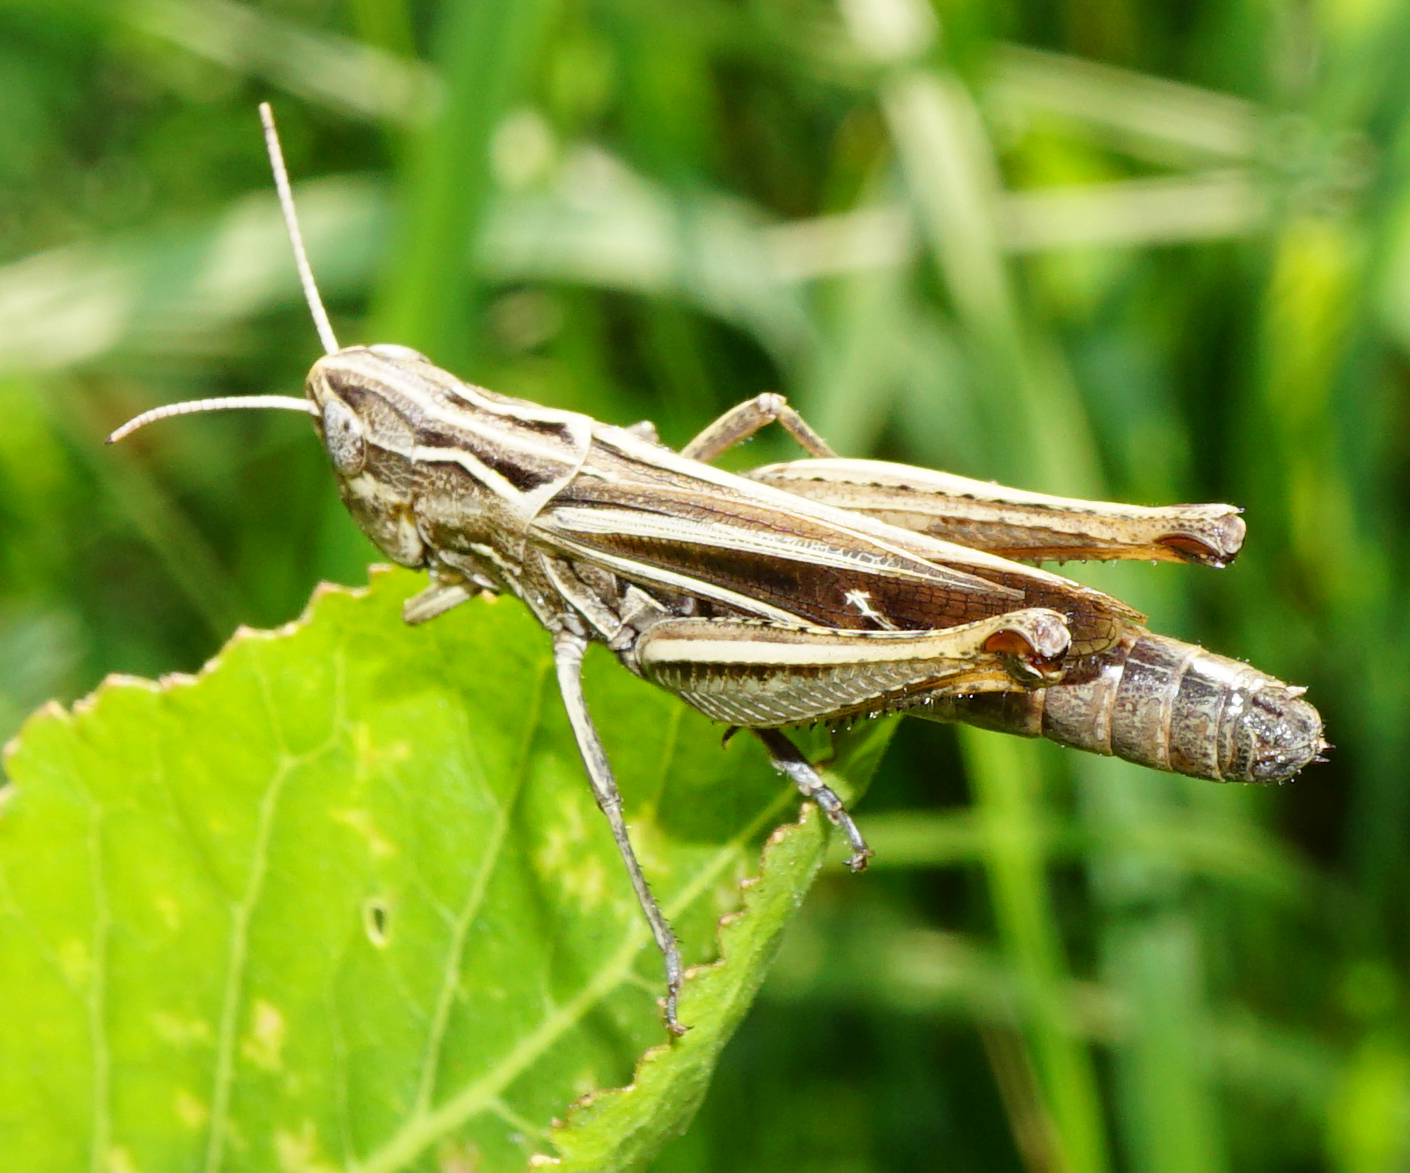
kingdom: Animalia
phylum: Arthropoda
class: Insecta
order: Orthoptera
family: Acrididae
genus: Stenobothrus
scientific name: Stenobothrus lineatus
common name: Stripe-winged grasshopper
